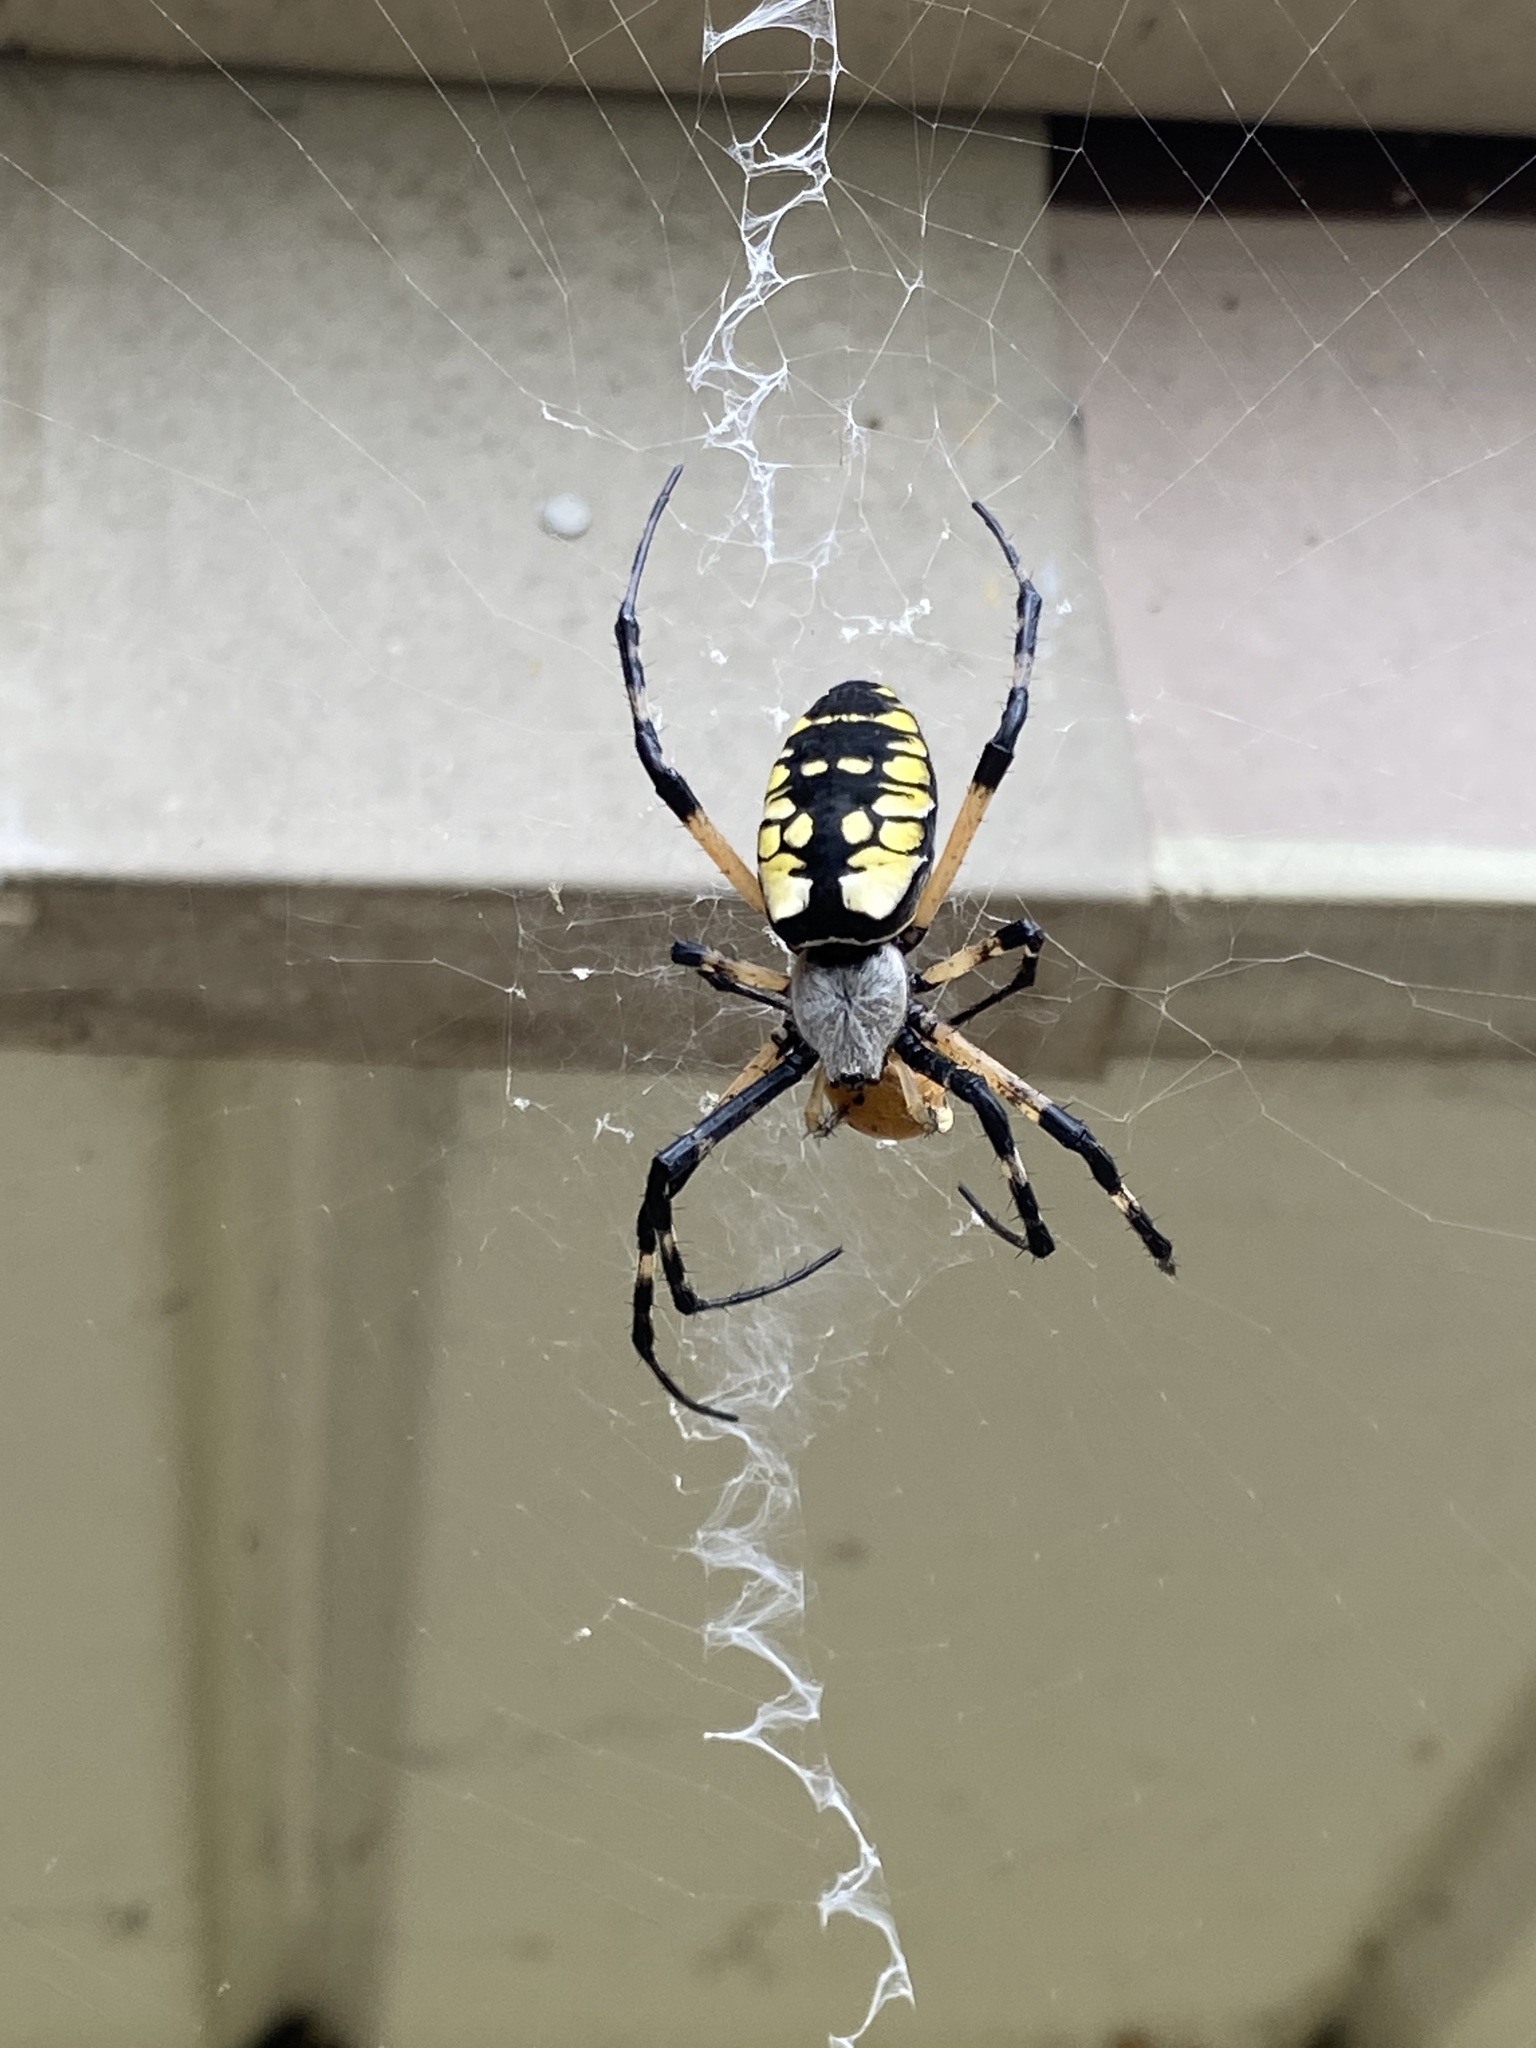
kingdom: Animalia
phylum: Arthropoda
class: Arachnida
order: Araneae
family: Araneidae
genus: Argiope
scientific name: Argiope aurantia
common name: Orb weavers
